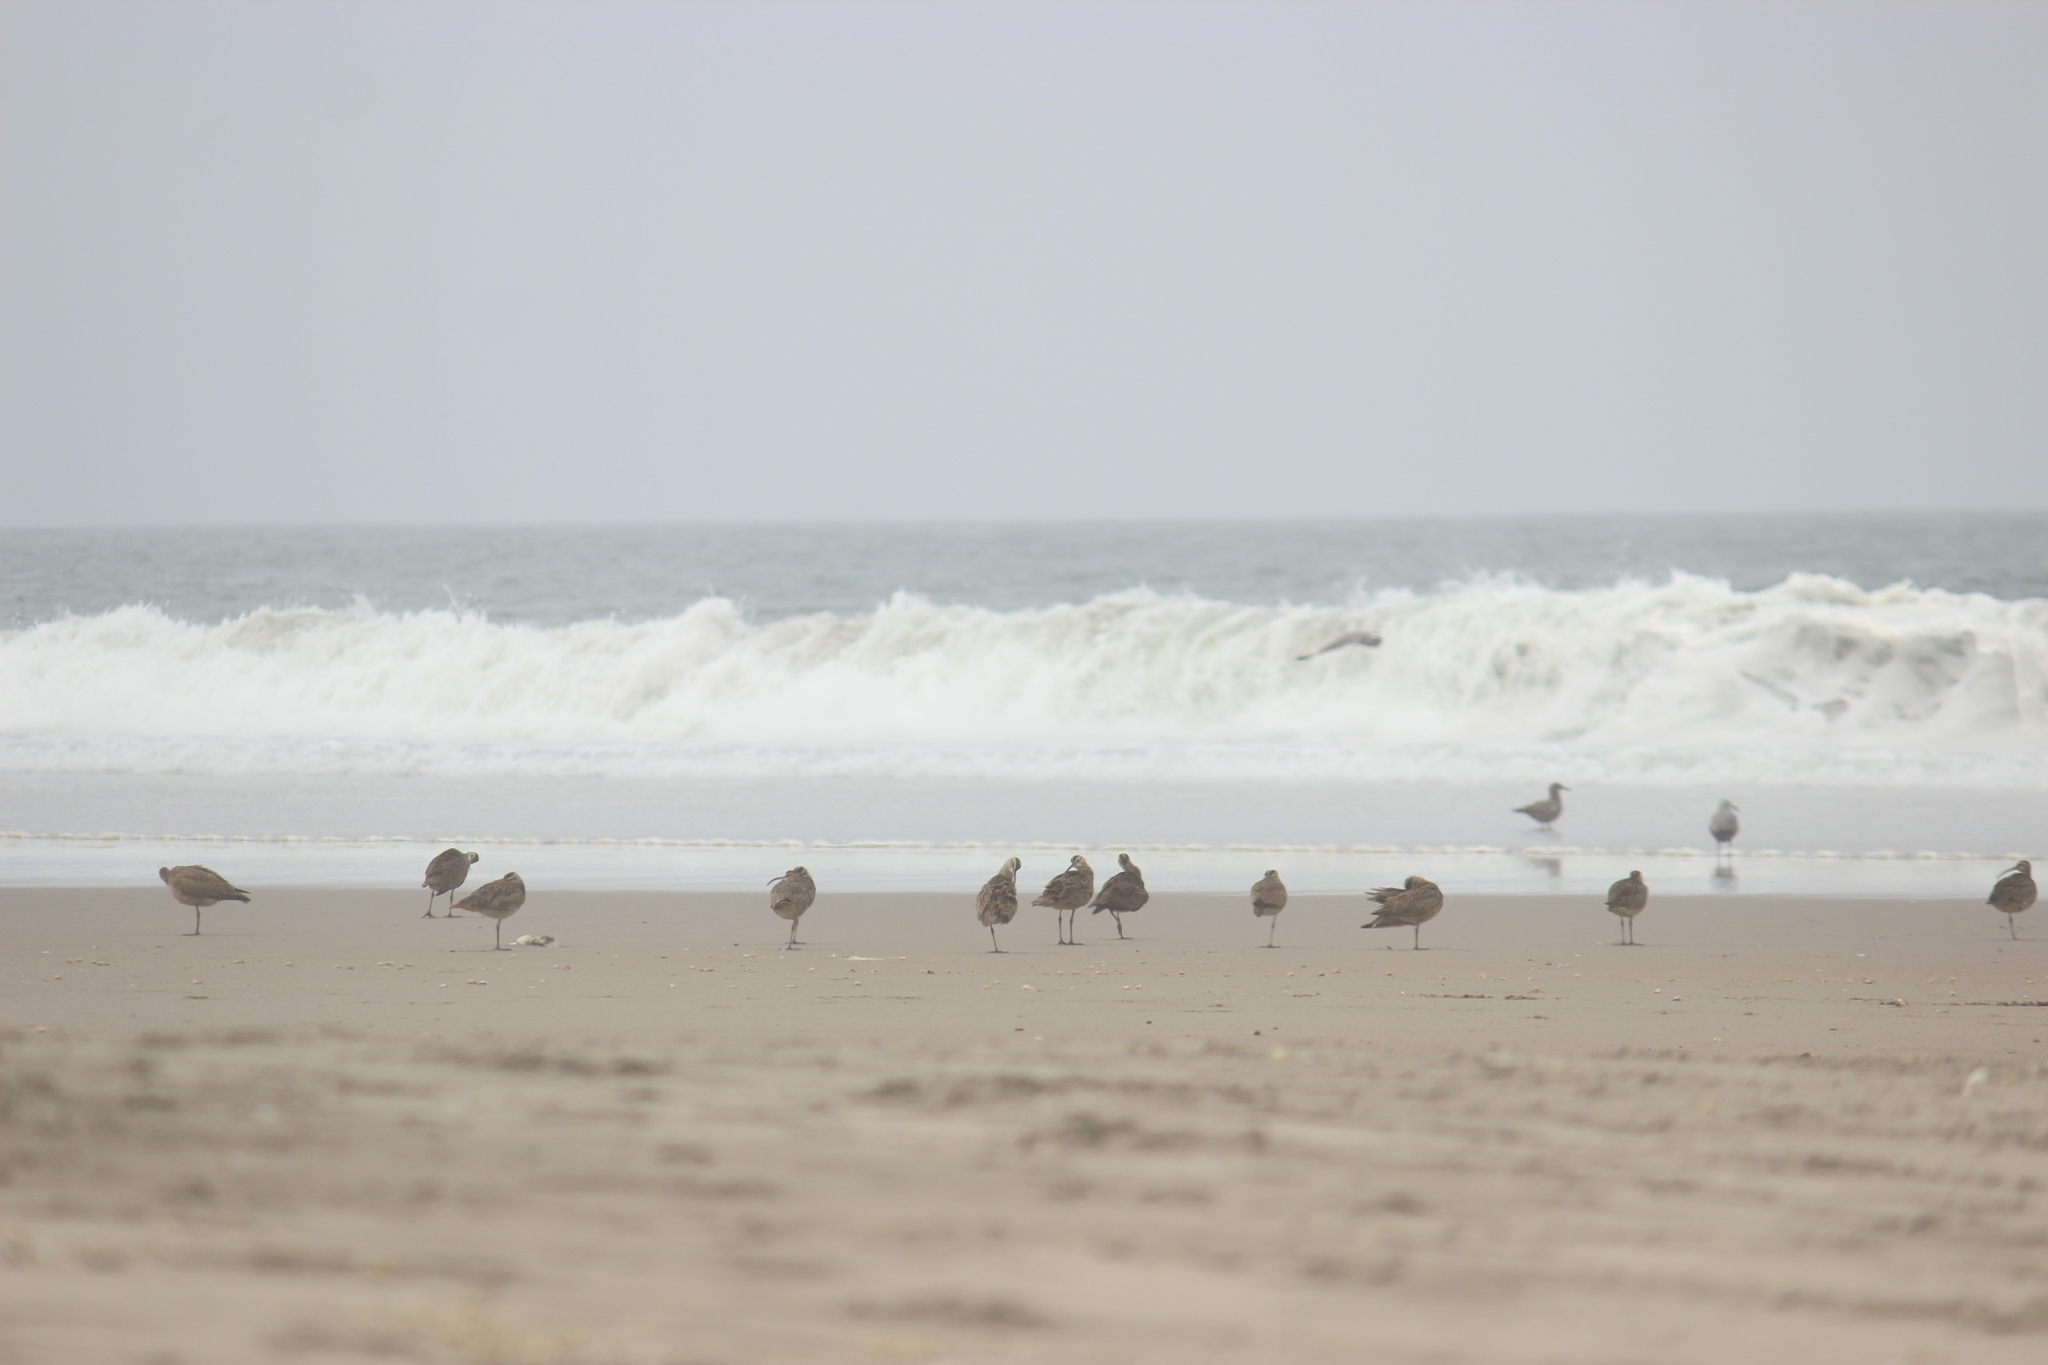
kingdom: Animalia
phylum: Chordata
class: Aves
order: Charadriiformes
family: Scolopacidae
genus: Numenius
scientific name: Numenius phaeopus
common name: Whimbrel
